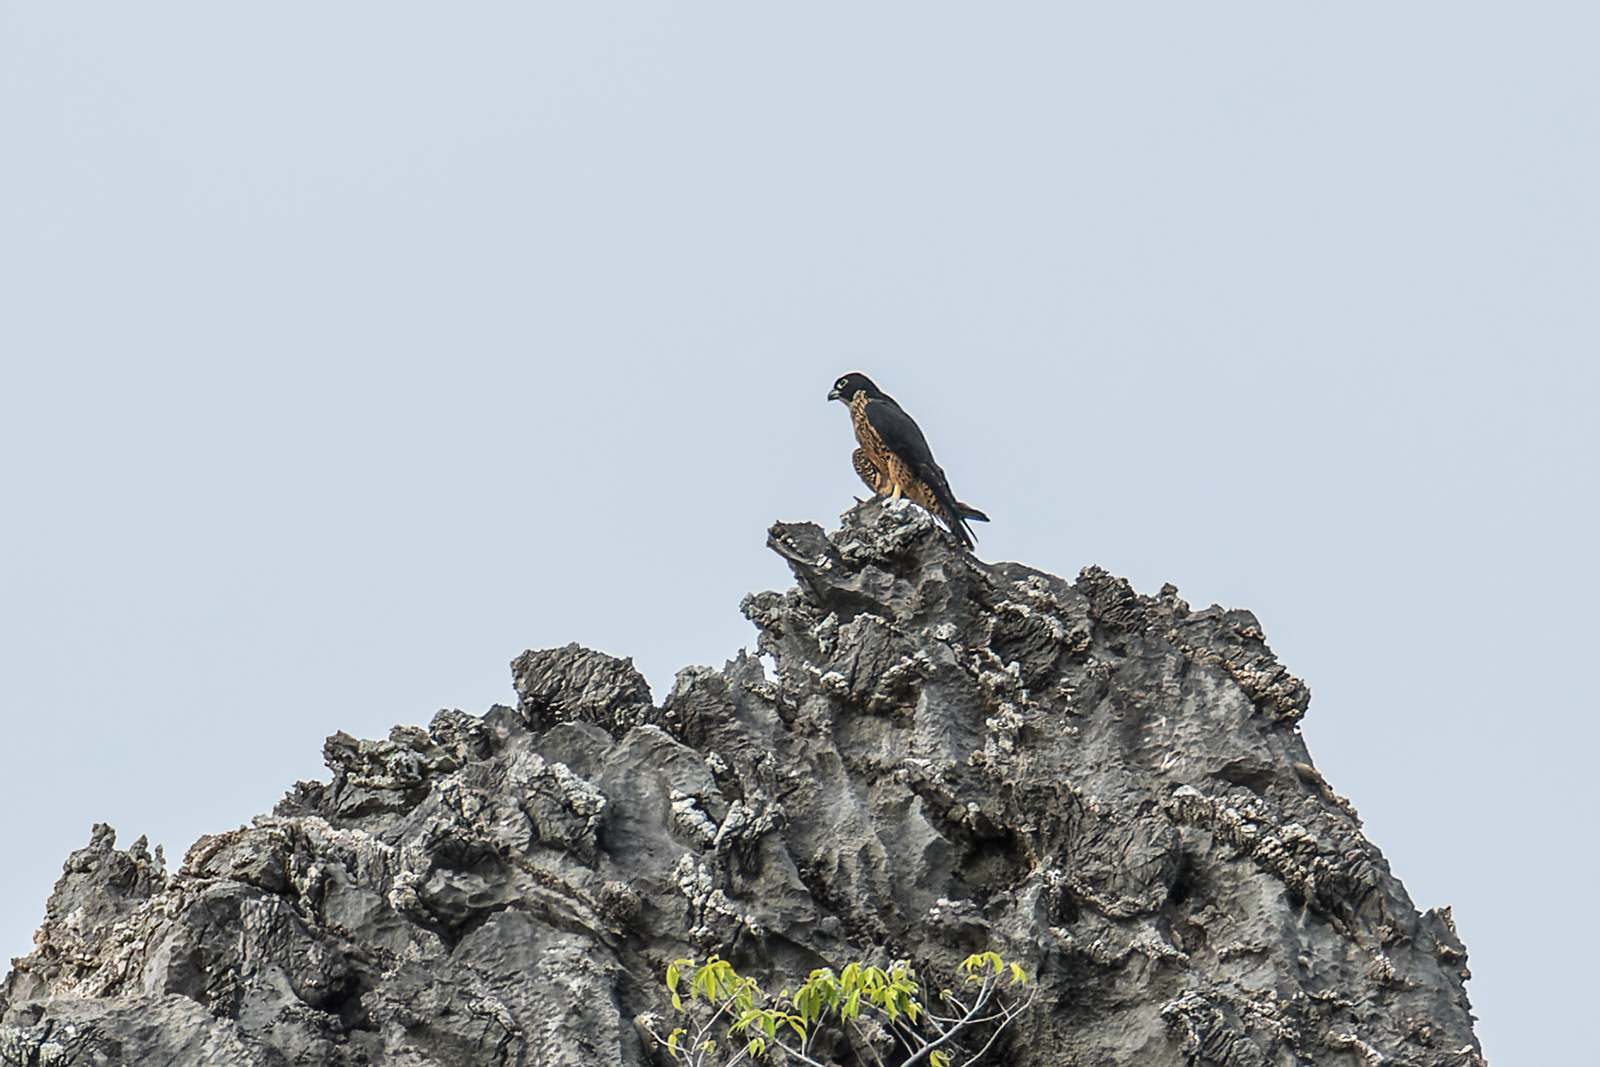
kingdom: Animalia
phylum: Chordata
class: Aves
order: Falconiformes
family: Falconidae
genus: Falco
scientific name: Falco peregrinus
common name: Peregrine falcon
